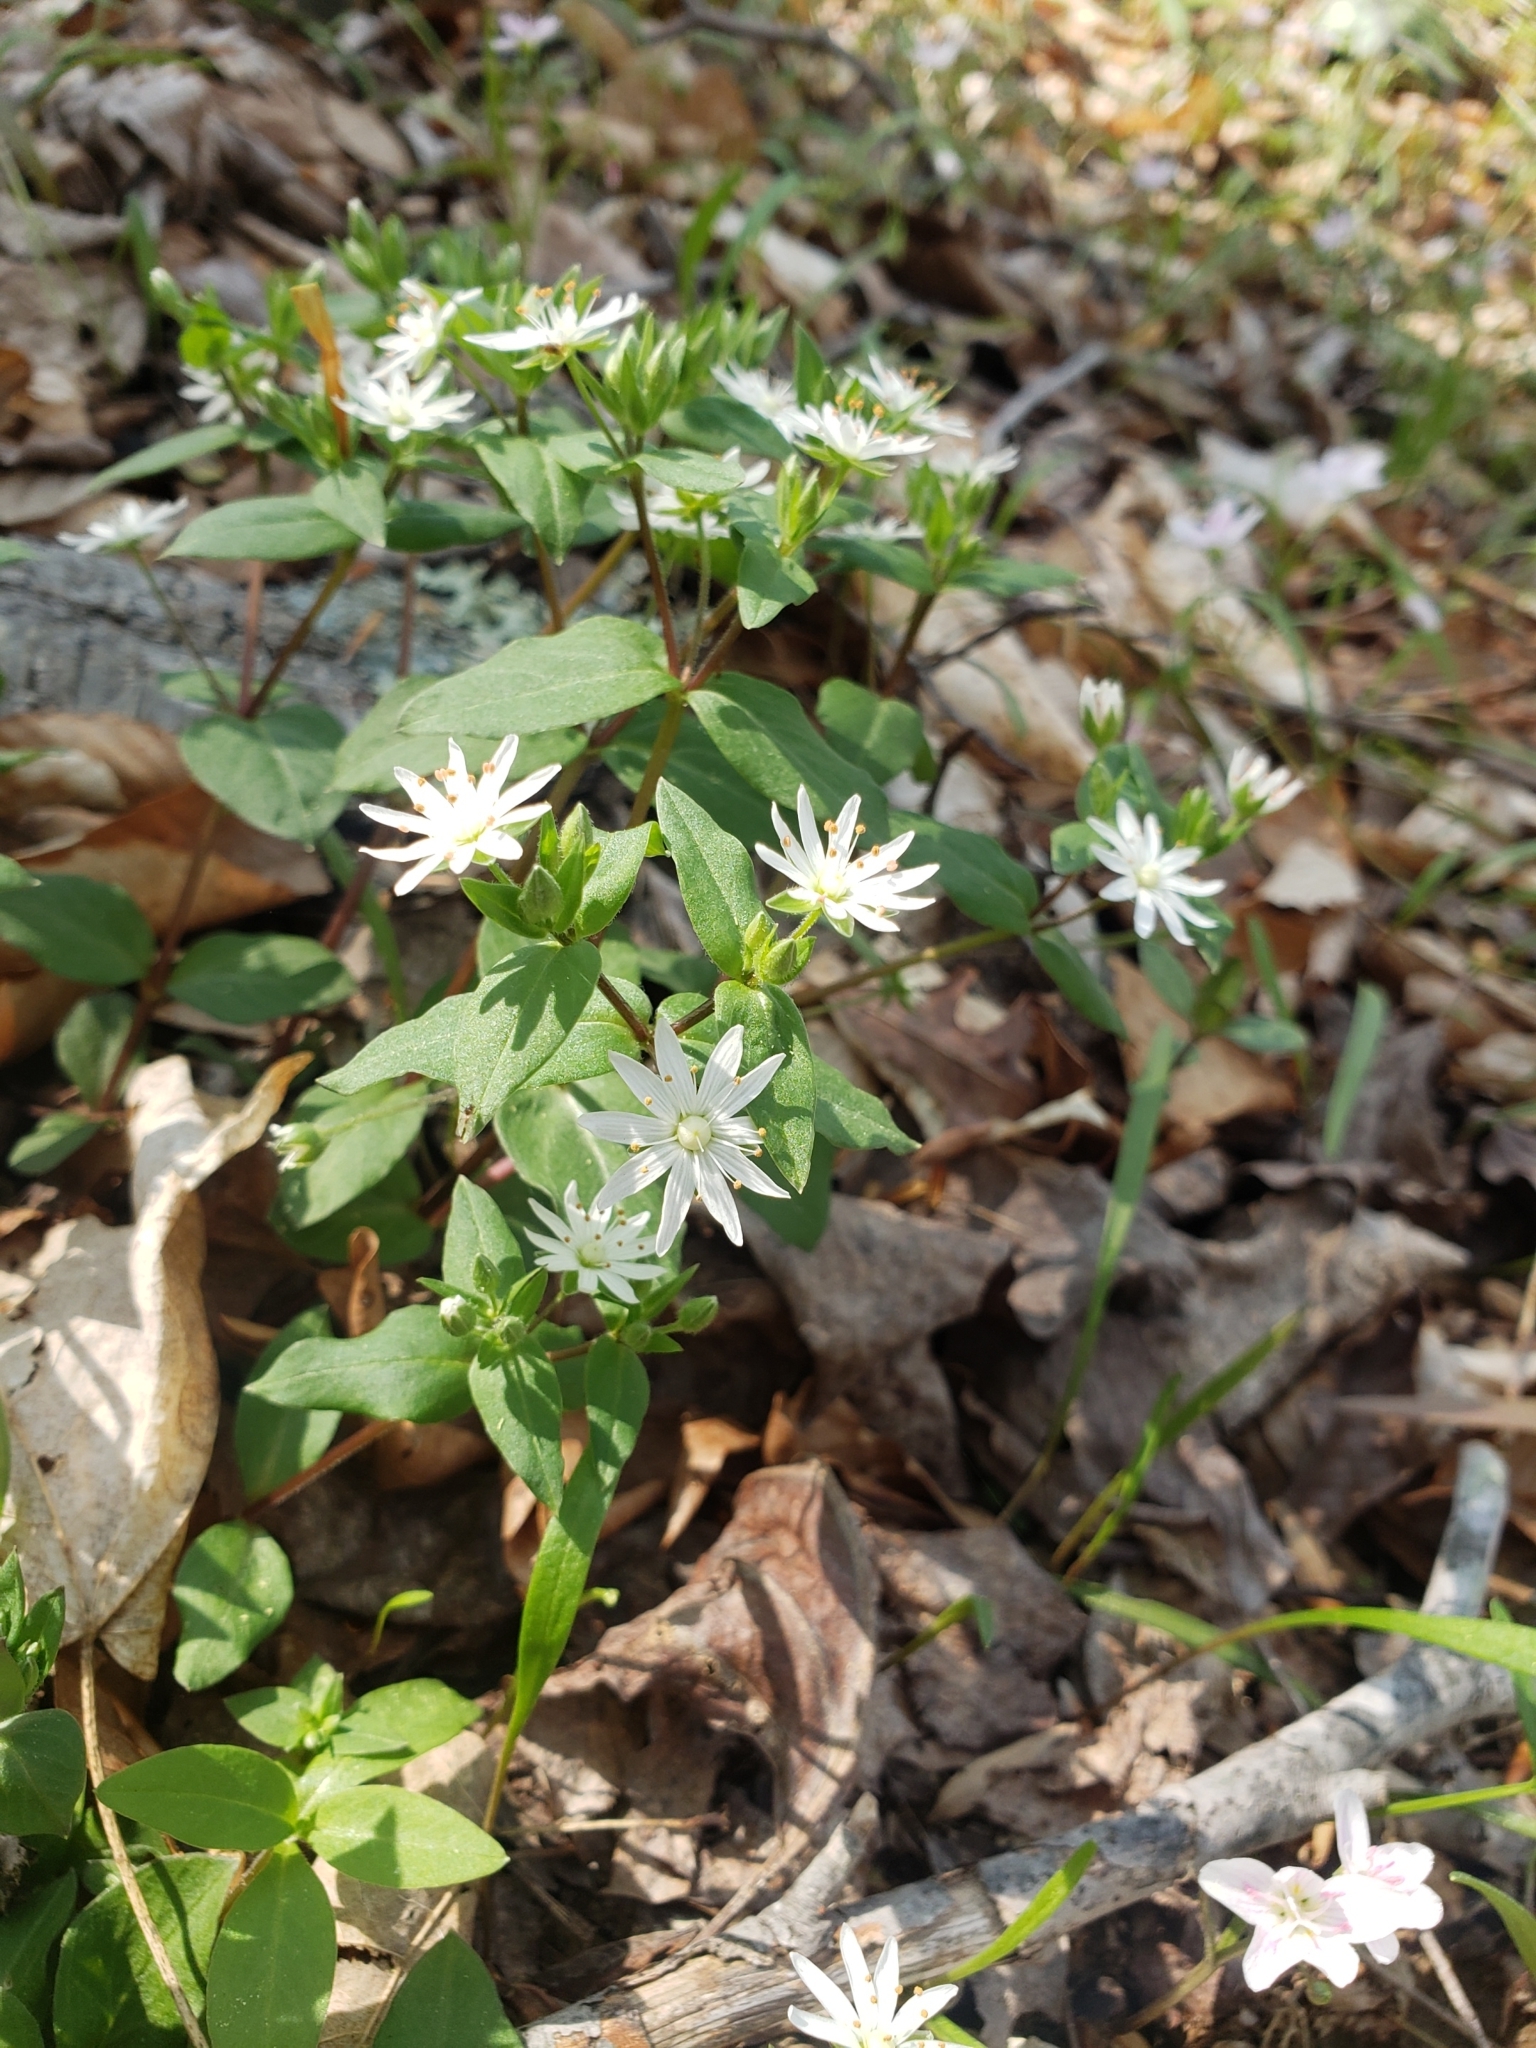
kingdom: Plantae
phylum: Tracheophyta
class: Magnoliopsida
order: Caryophyllales
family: Caryophyllaceae
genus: Stellaria
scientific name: Stellaria pubera
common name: Star chickweed
